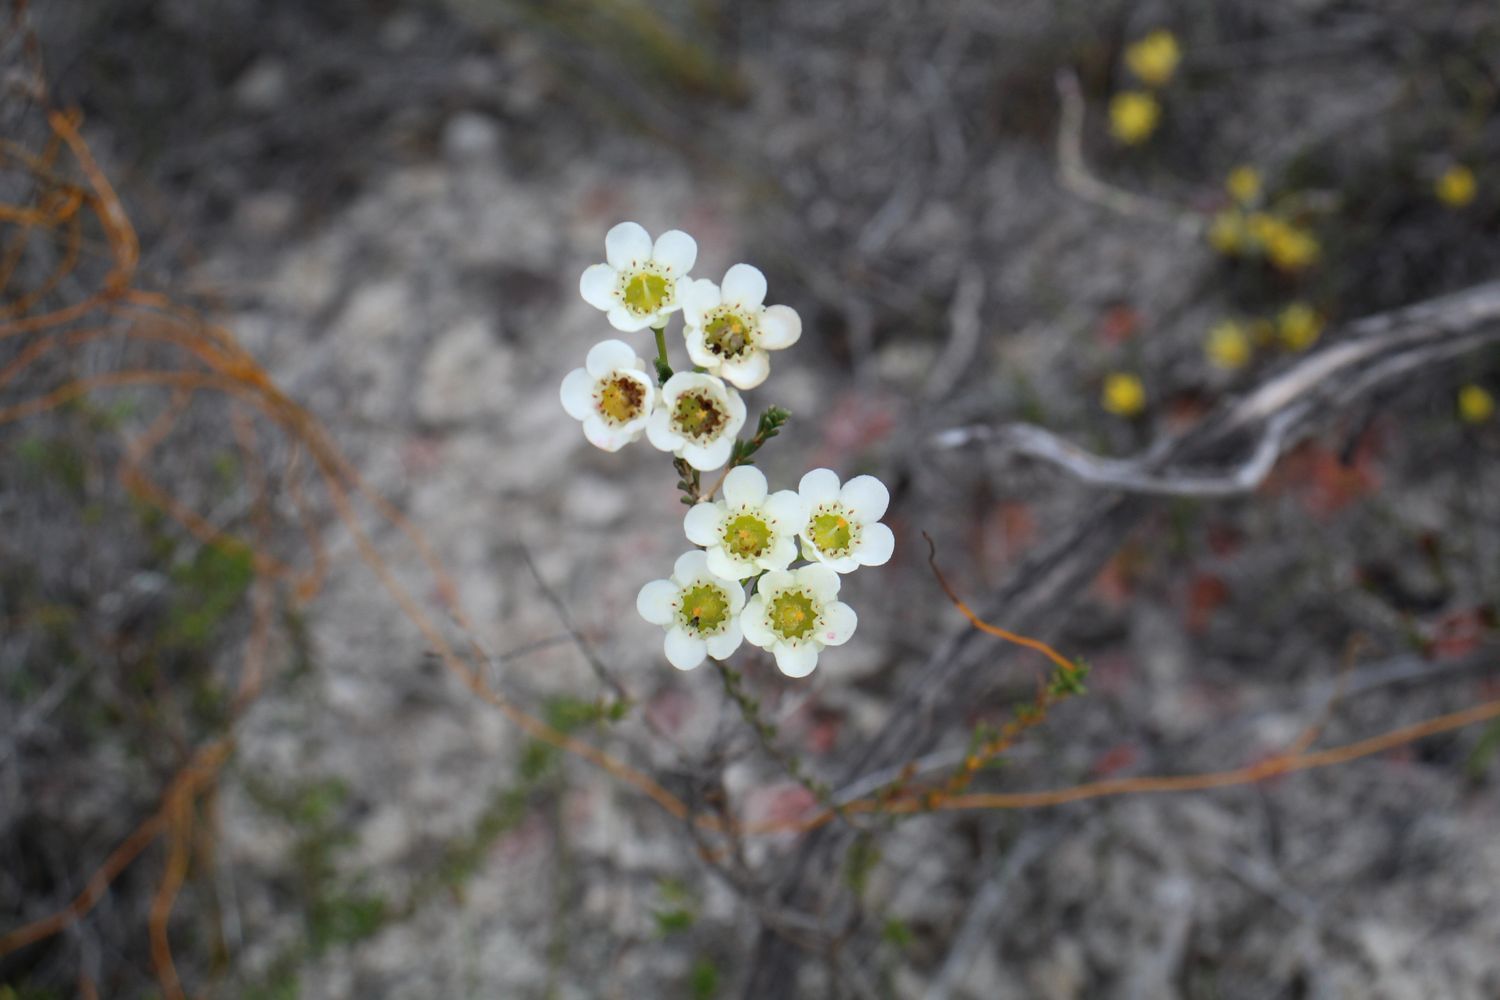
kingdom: Plantae
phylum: Tracheophyta
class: Magnoliopsida
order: Myrtales
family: Myrtaceae
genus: Chamelaucium
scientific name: Chamelaucium megalopetalum
